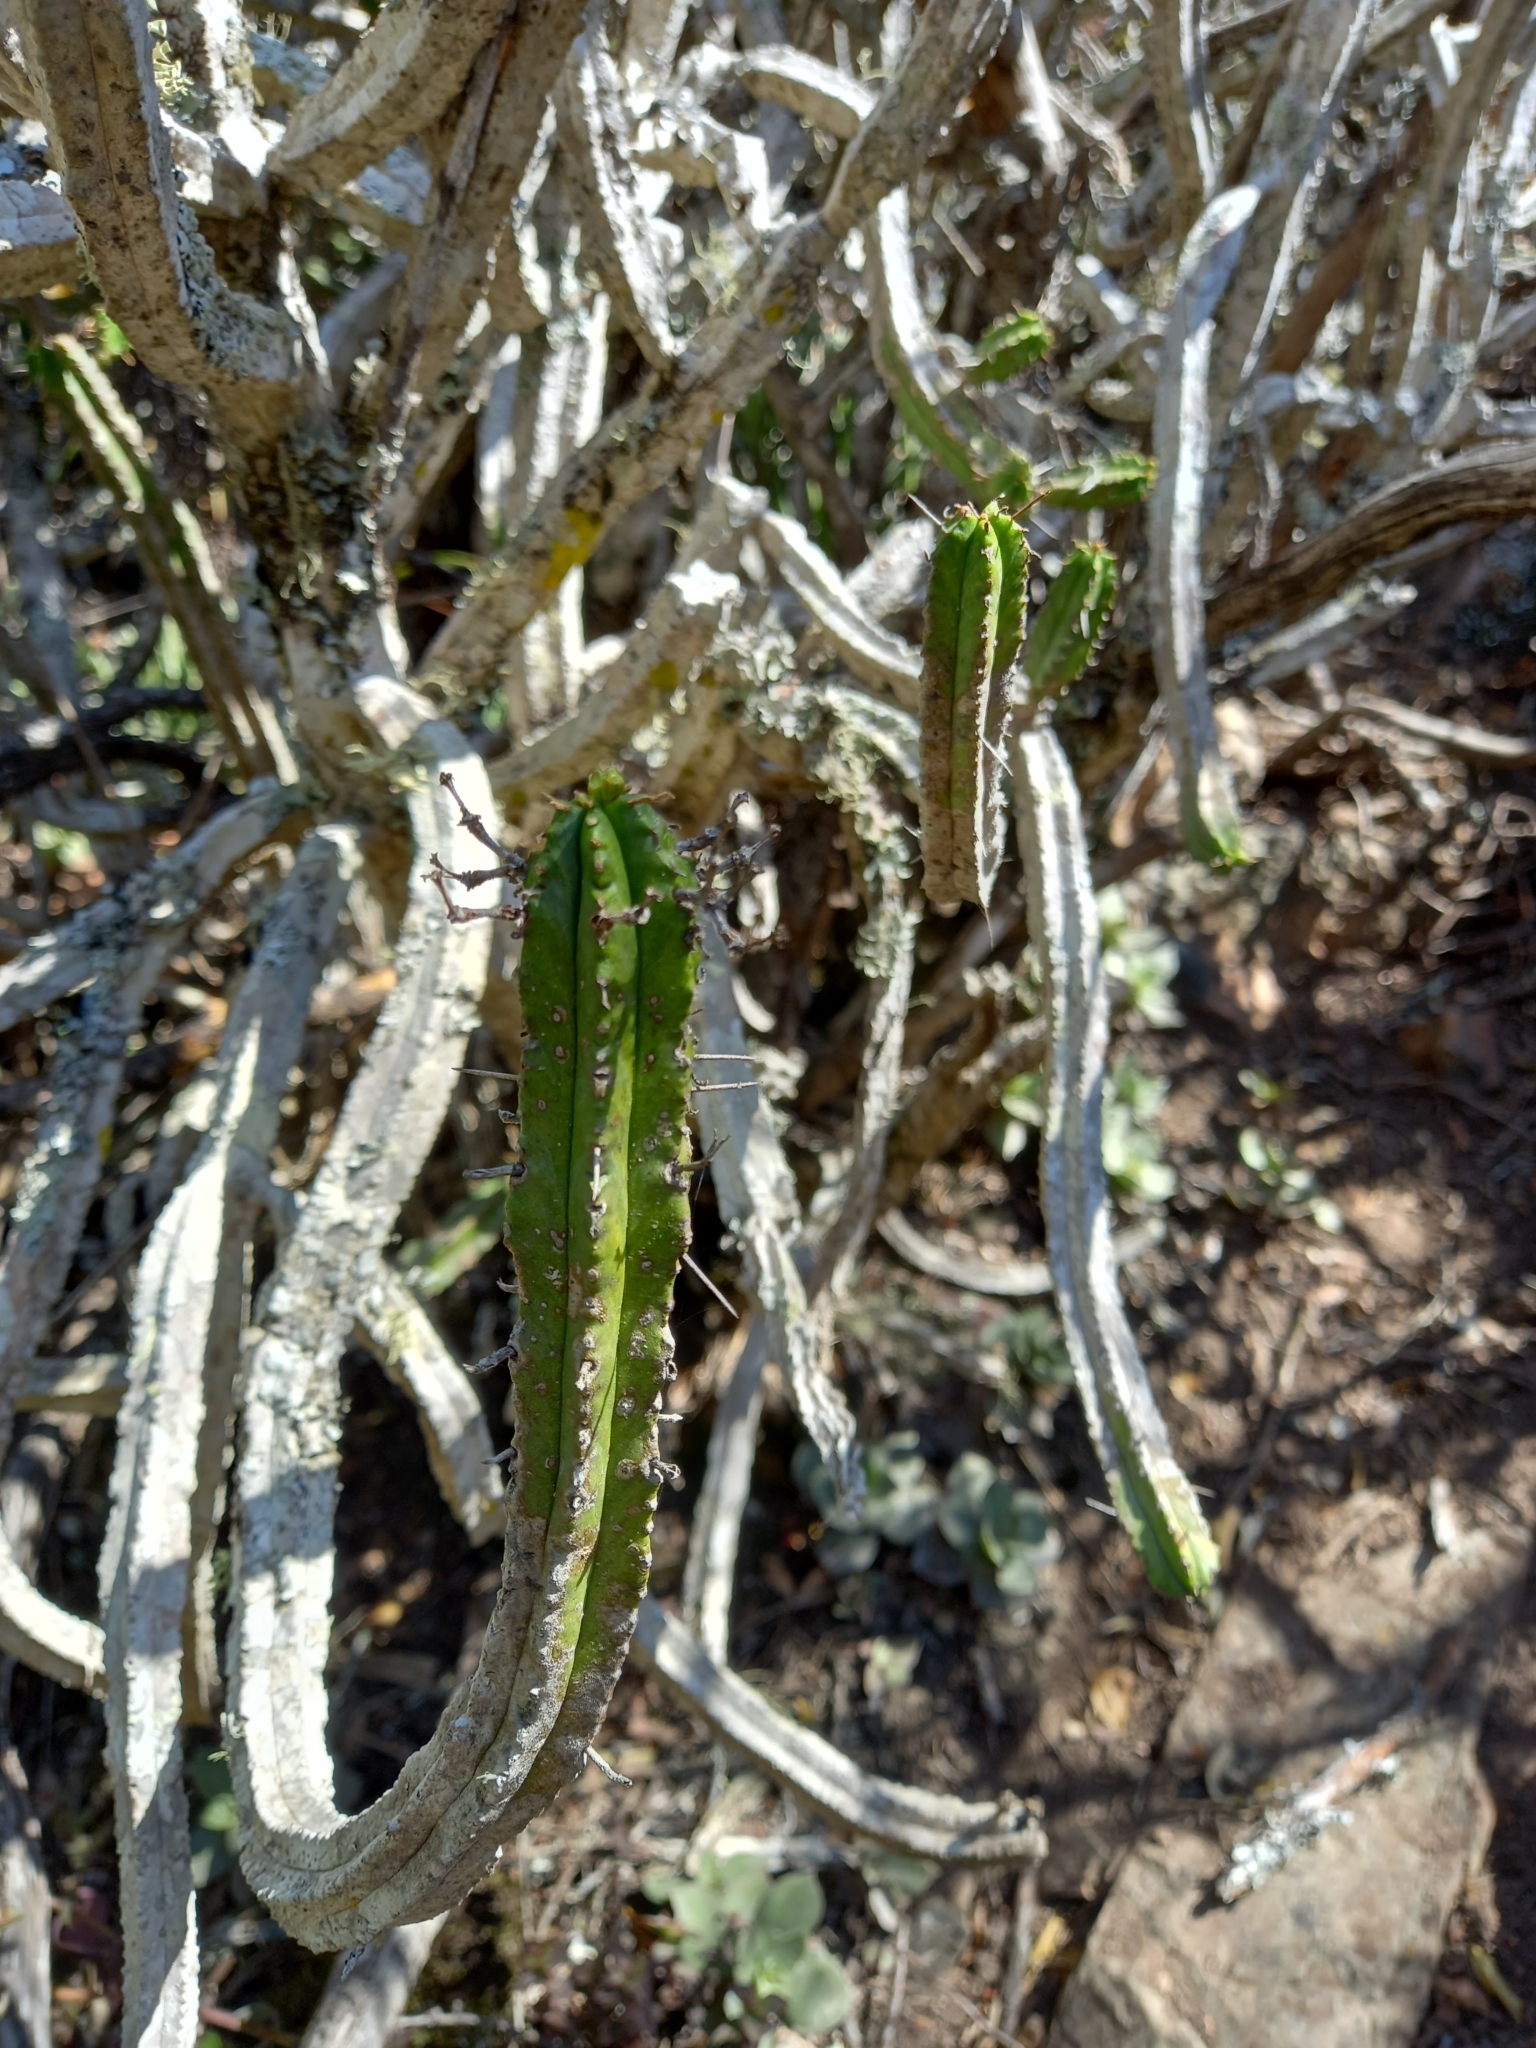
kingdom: Plantae
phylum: Tracheophyta
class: Magnoliopsida
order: Malpighiales
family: Euphorbiaceae
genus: Euphorbia
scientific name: Euphorbia pentagona
